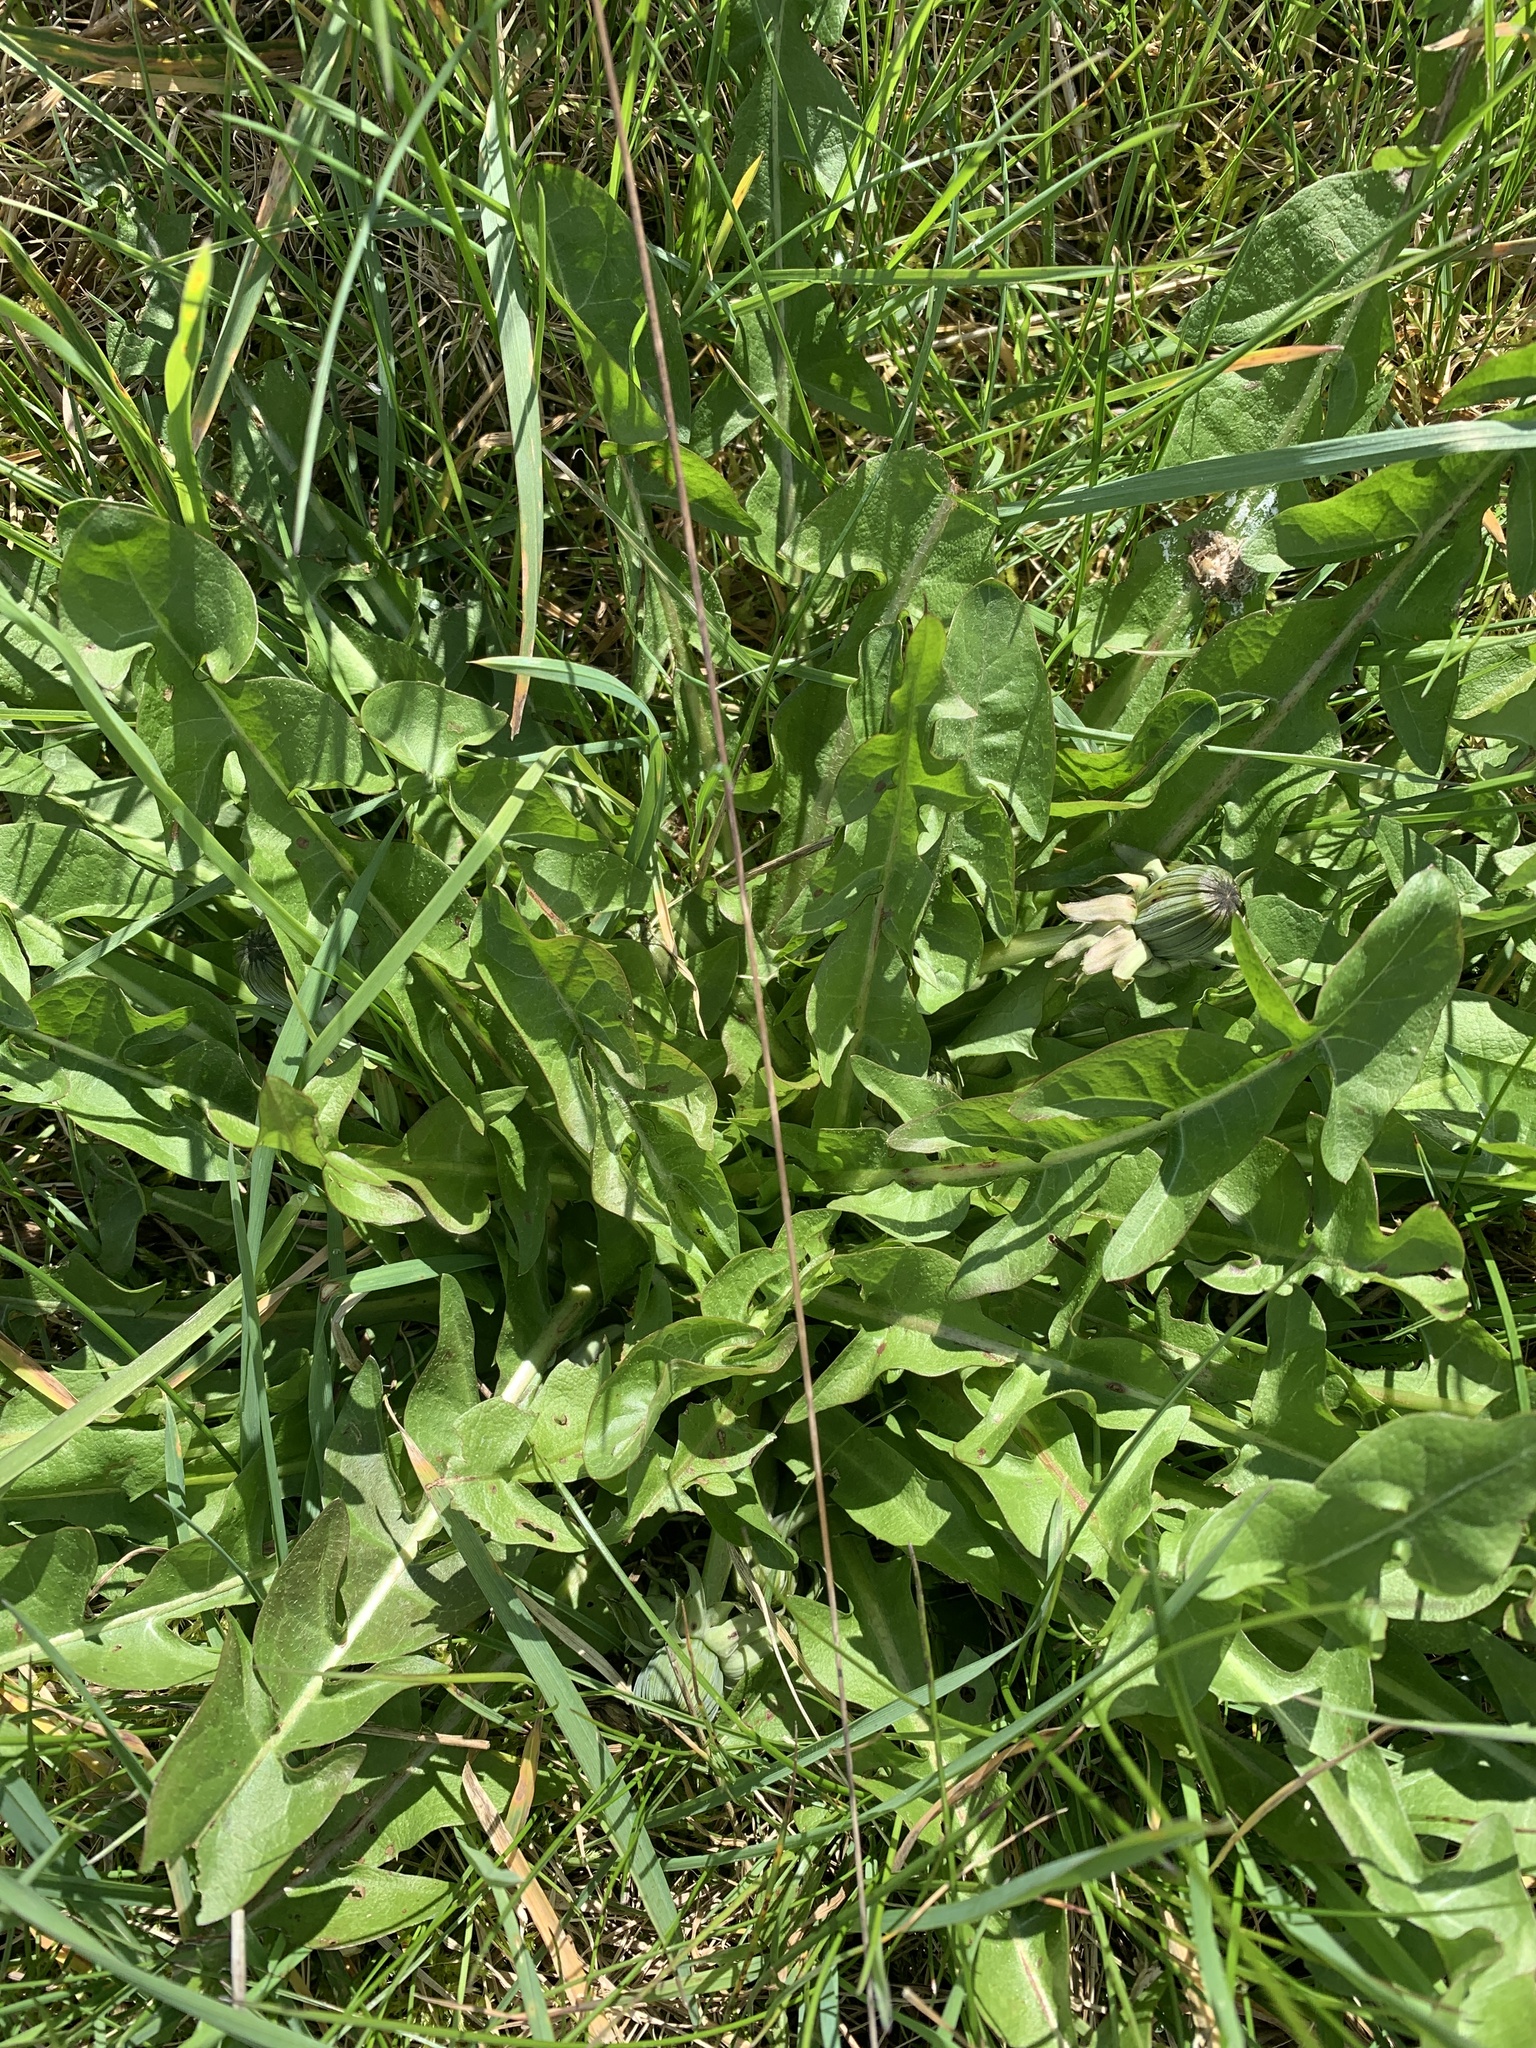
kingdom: Plantae
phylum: Tracheophyta
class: Magnoliopsida
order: Asterales
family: Asteraceae
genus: Taraxacum
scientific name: Taraxacum officinale
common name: Common dandelion
